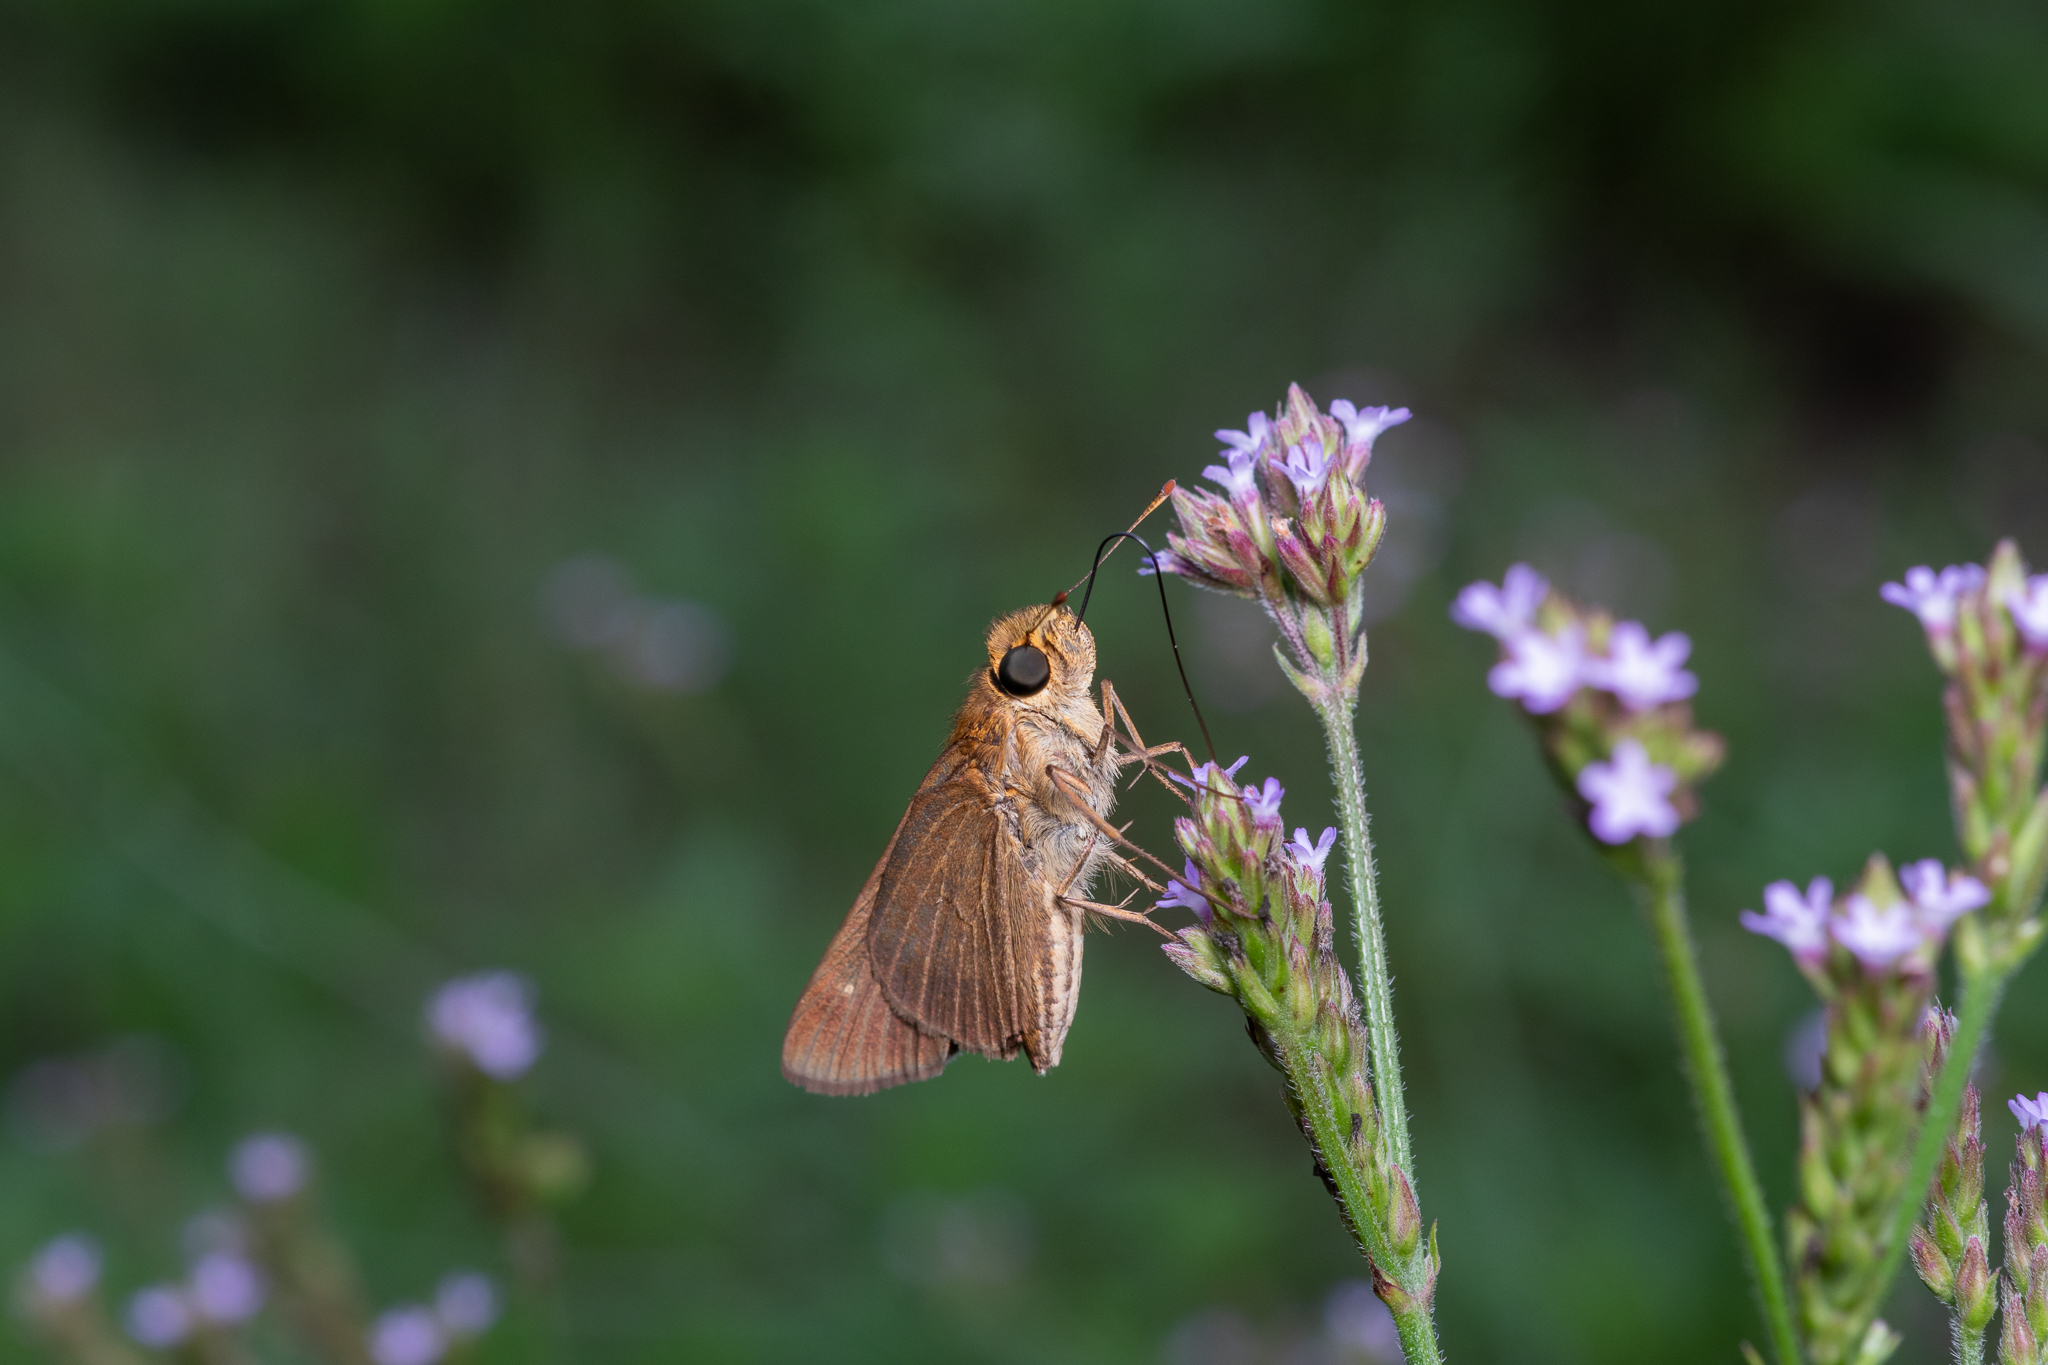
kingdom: Animalia
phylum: Arthropoda
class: Insecta
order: Lepidoptera
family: Hesperiidae
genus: Panoquina
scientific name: Panoquina ocola
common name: Ocola skipper
